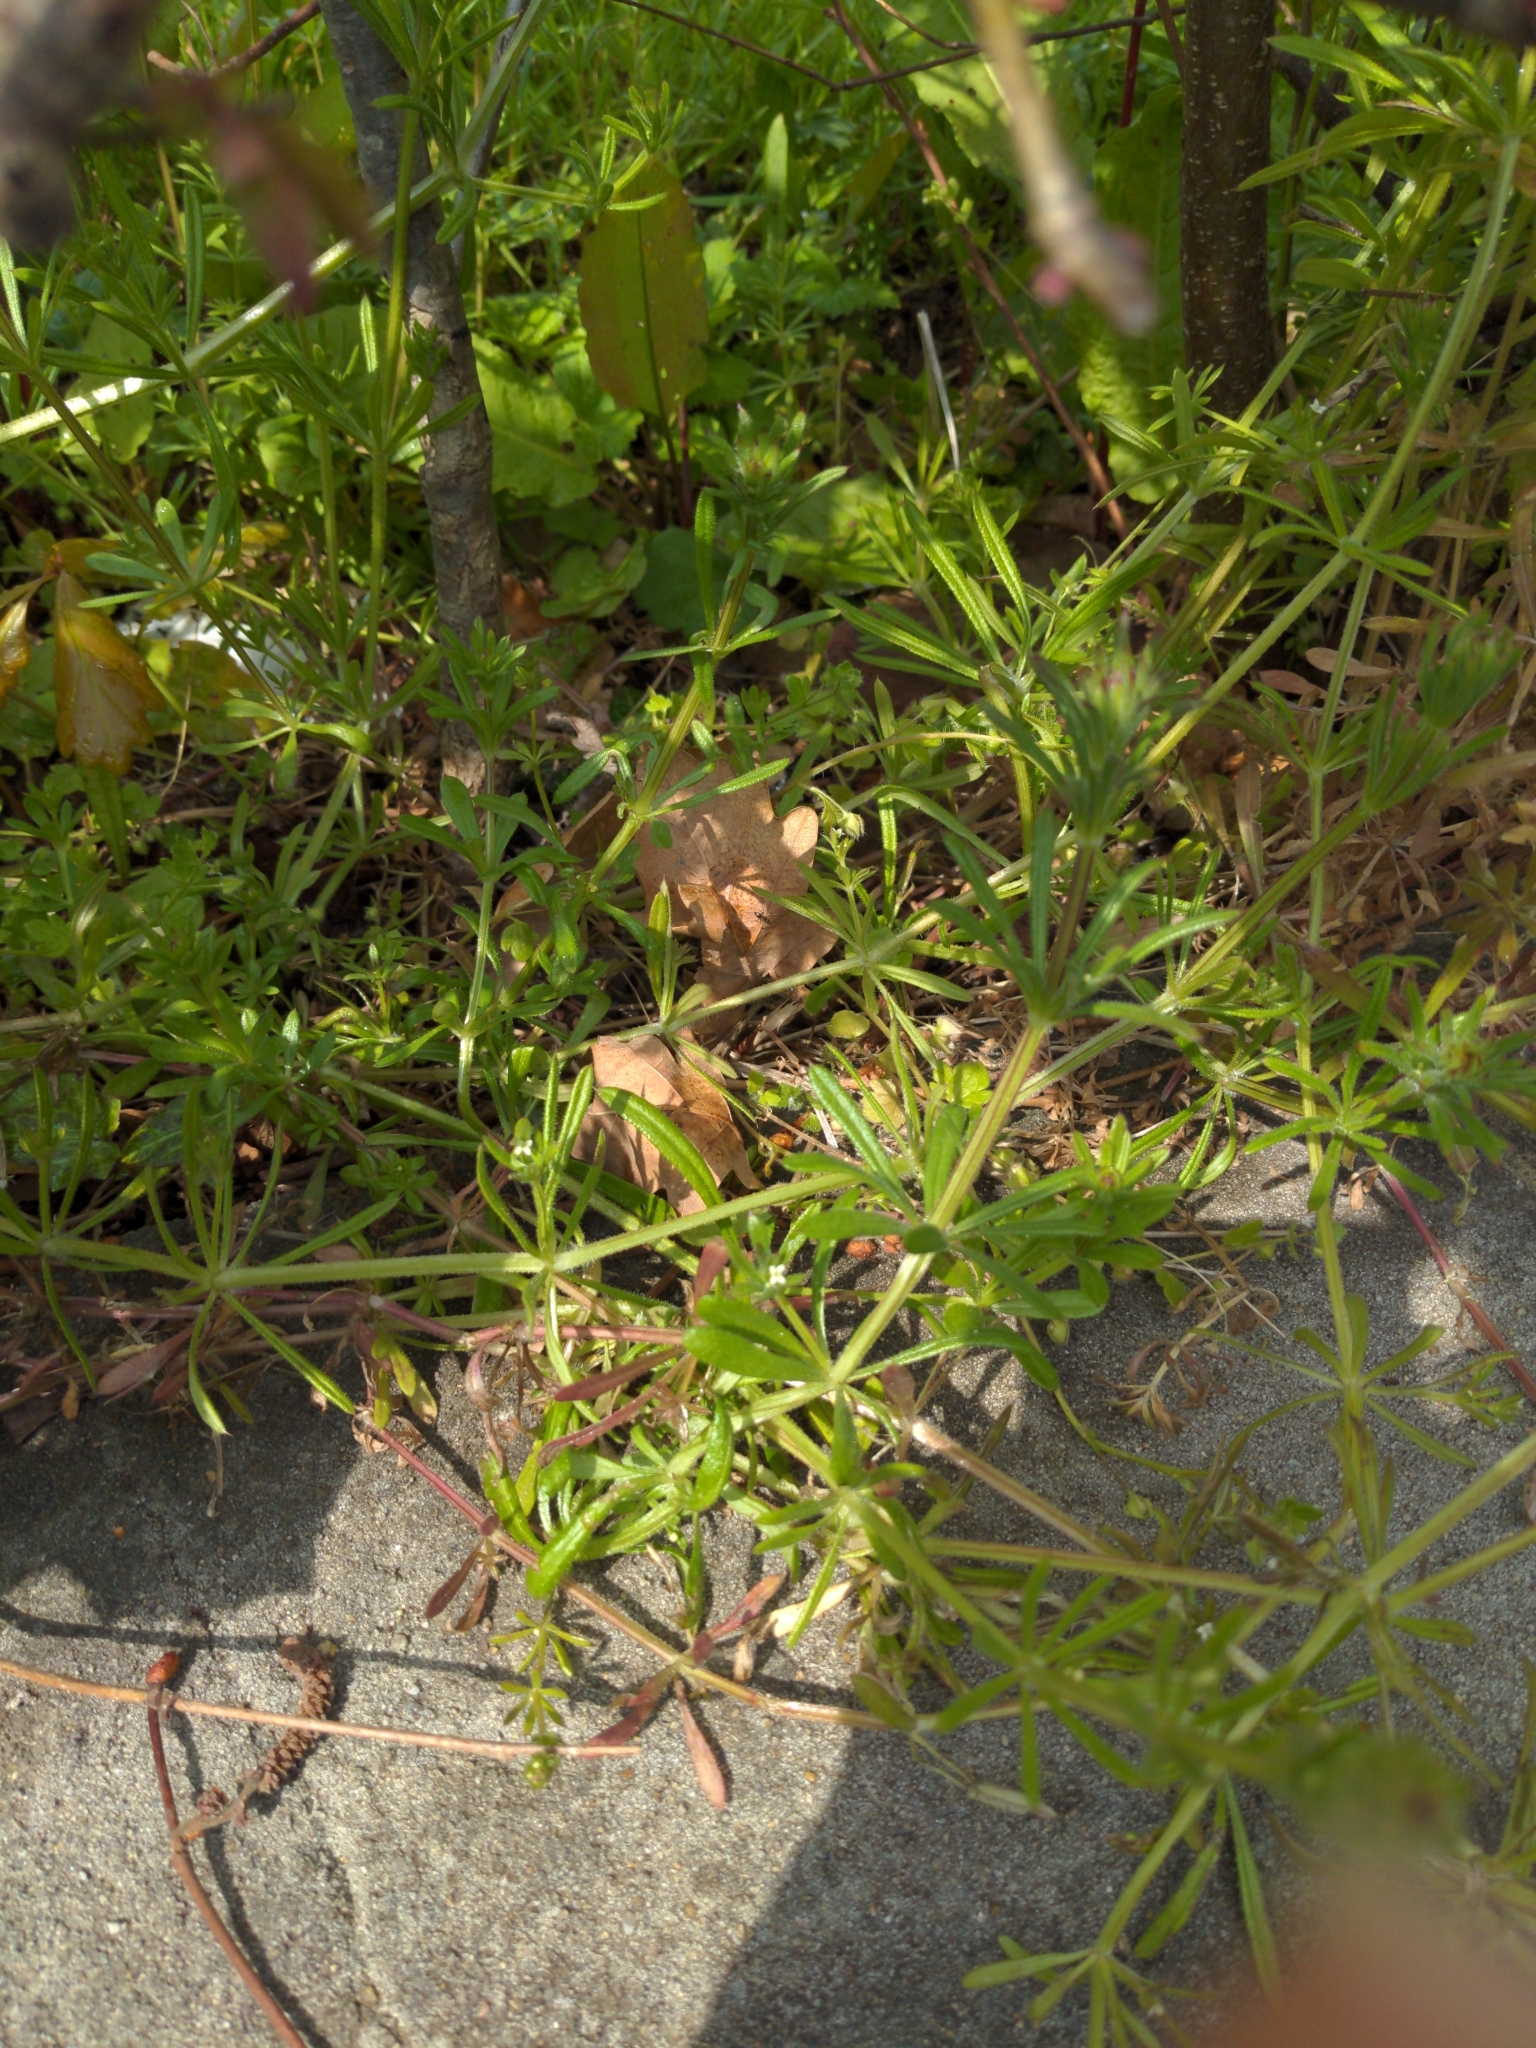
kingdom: Plantae
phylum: Tracheophyta
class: Magnoliopsida
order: Gentianales
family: Rubiaceae
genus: Galium
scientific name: Galium aparine
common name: Cleavers
